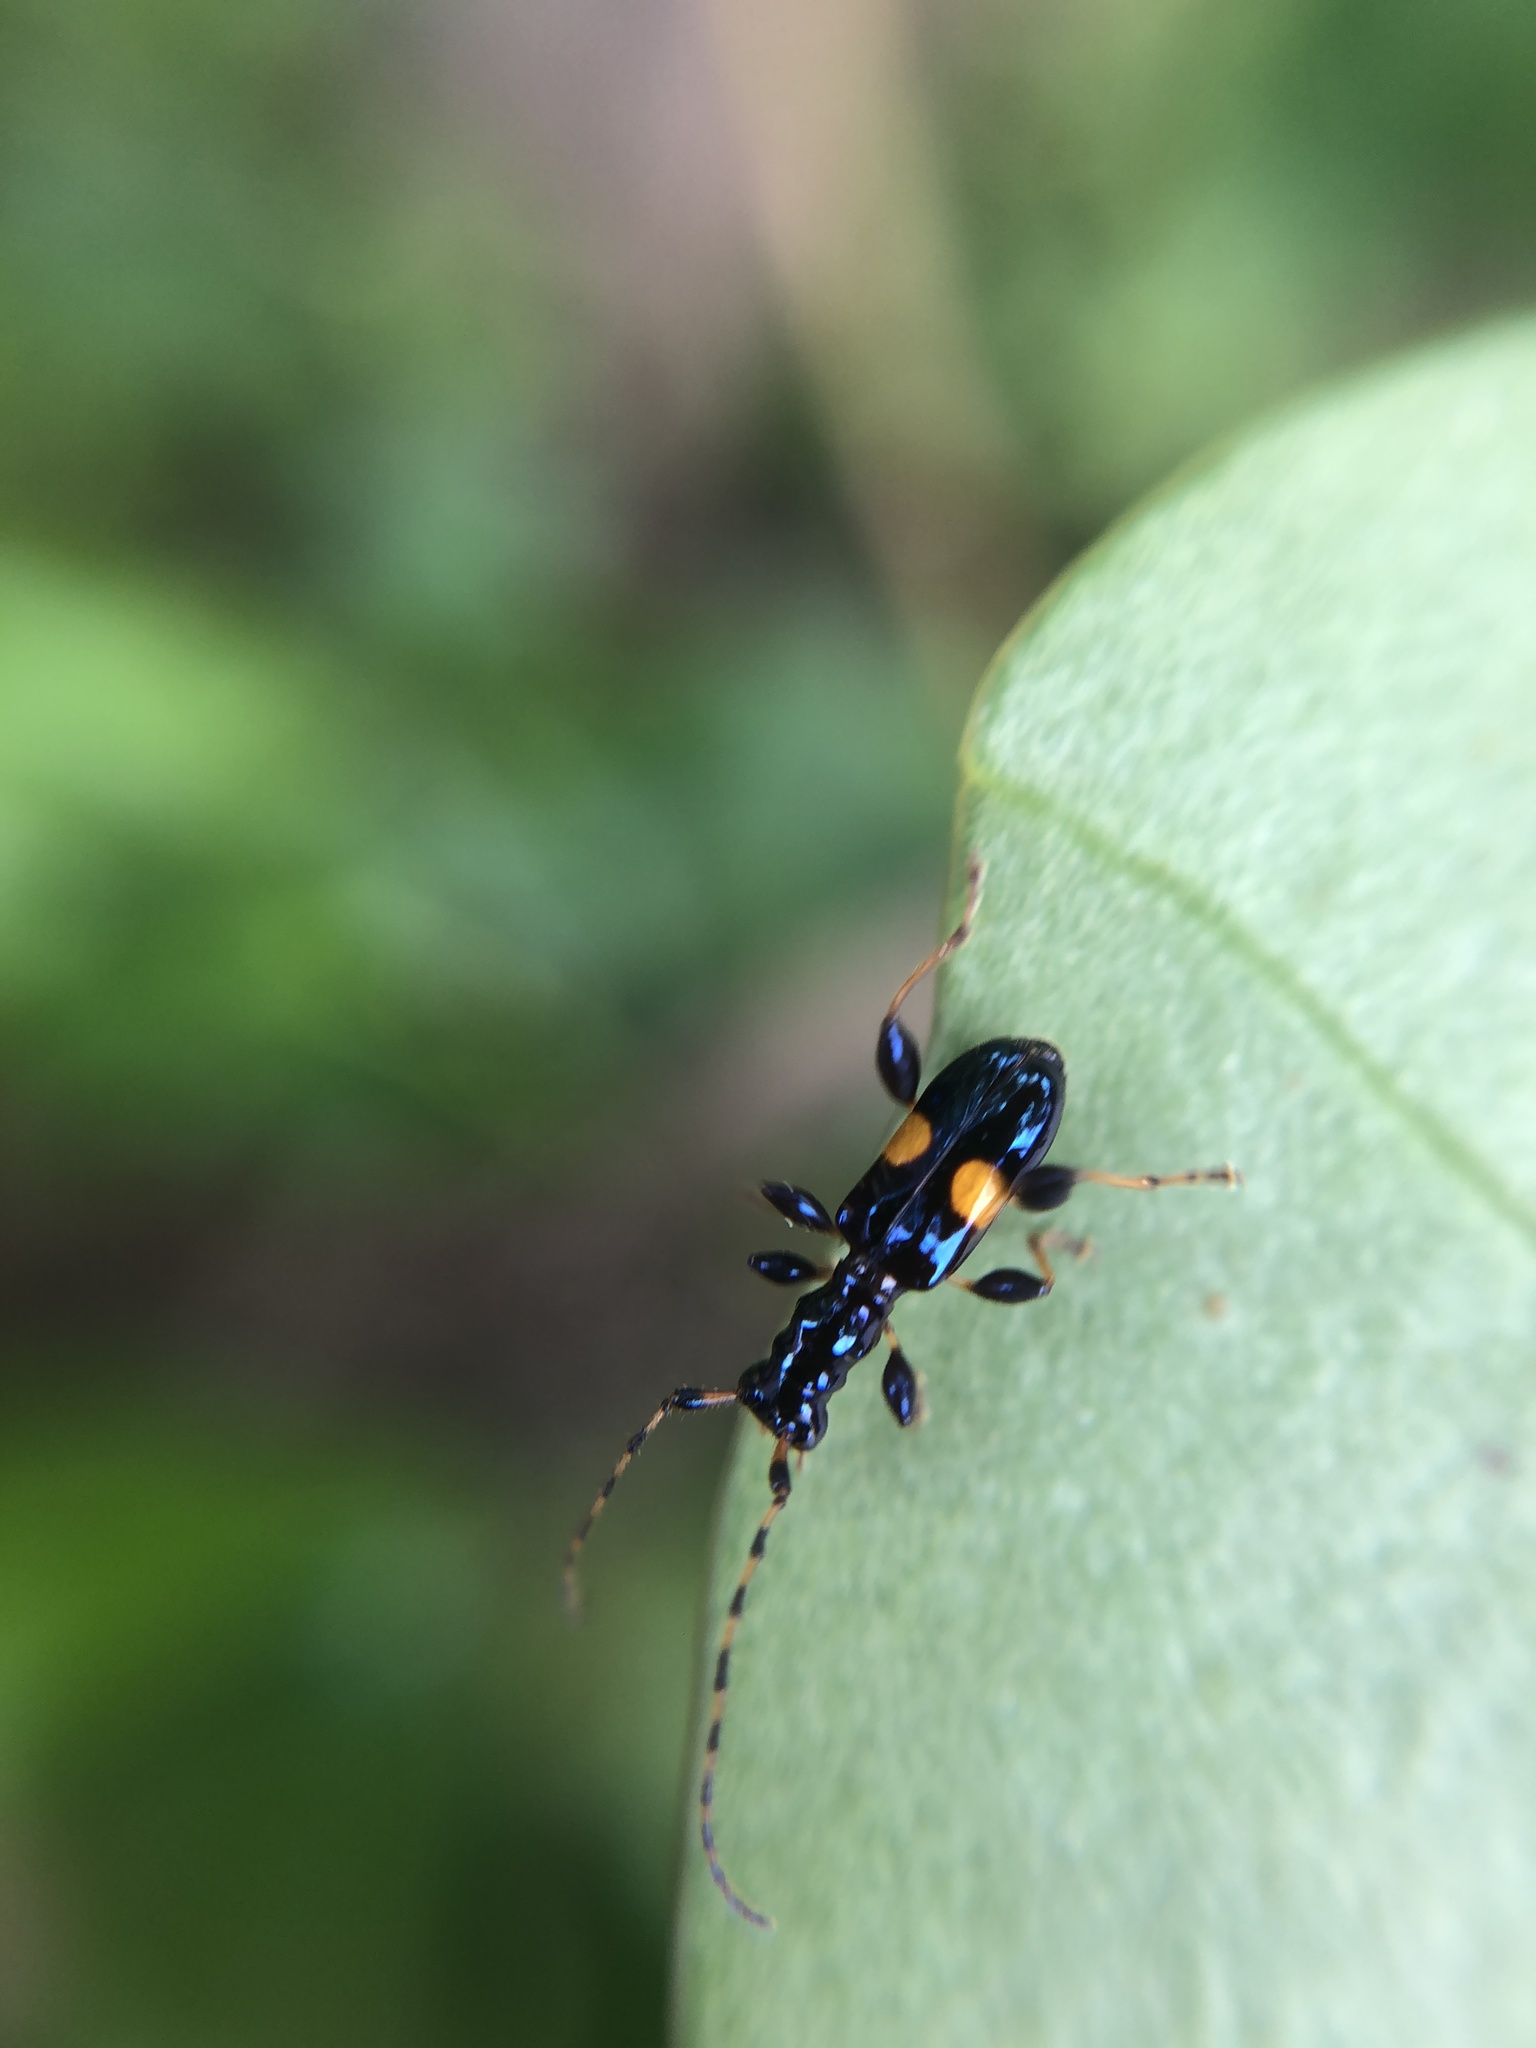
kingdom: Animalia
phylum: Arthropoda
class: Insecta
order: Coleoptera
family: Cerambycidae
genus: Zorion
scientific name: Zorion guttigerum
